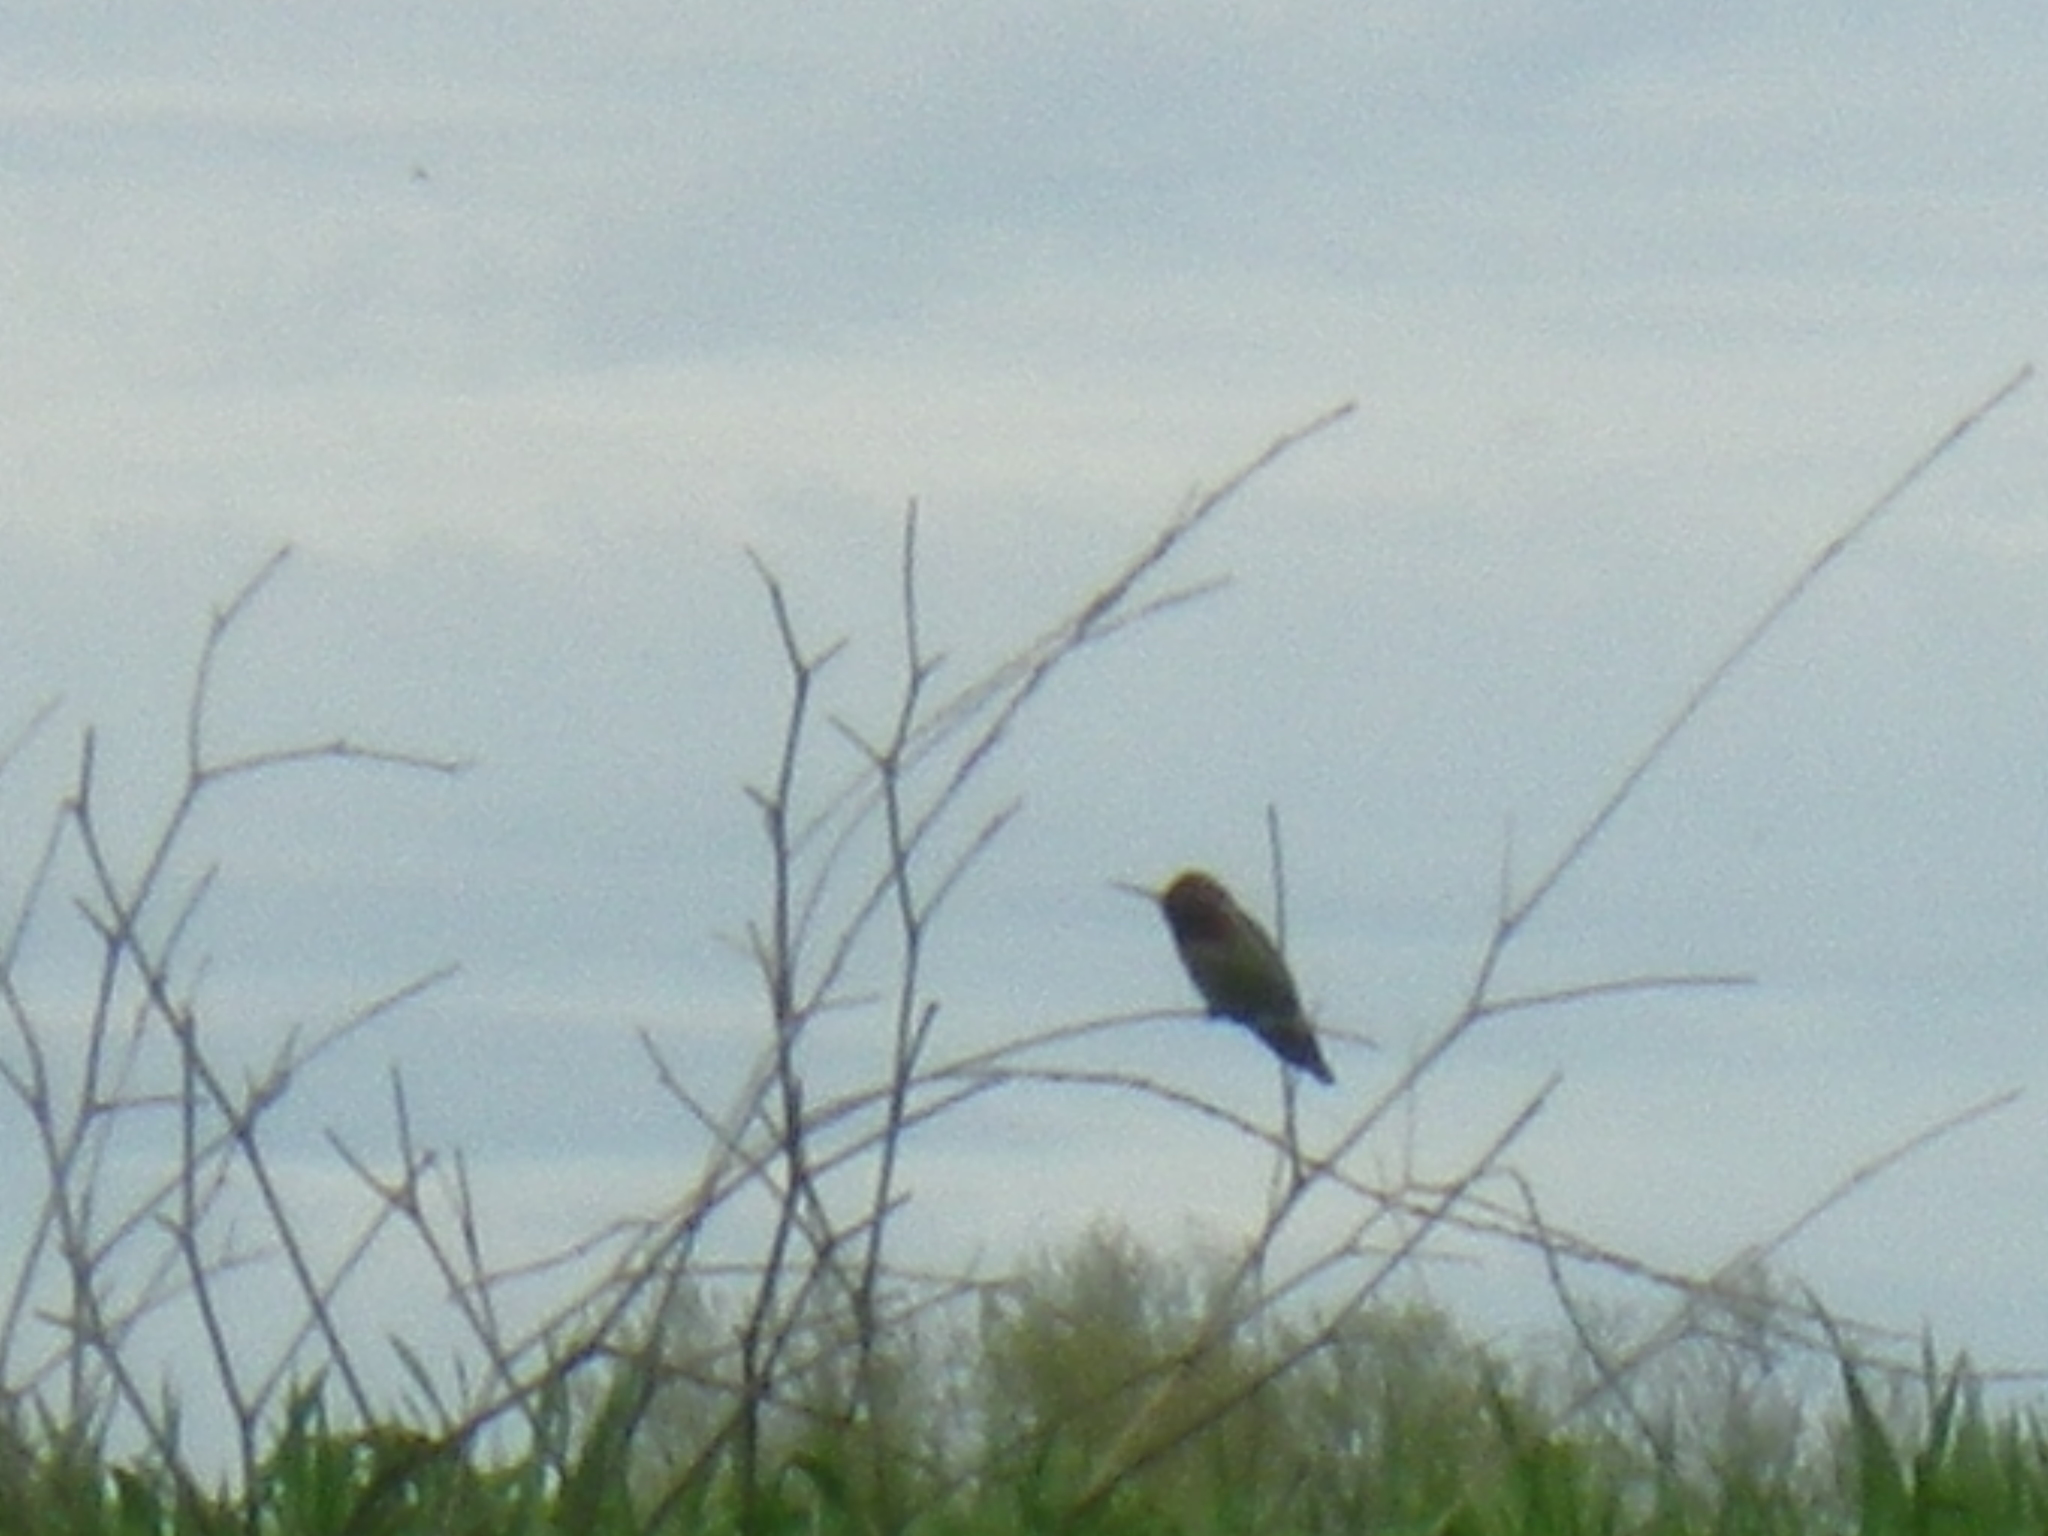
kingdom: Animalia
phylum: Chordata
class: Aves
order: Apodiformes
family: Trochilidae
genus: Calypte
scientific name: Calypte anna
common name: Anna's hummingbird
